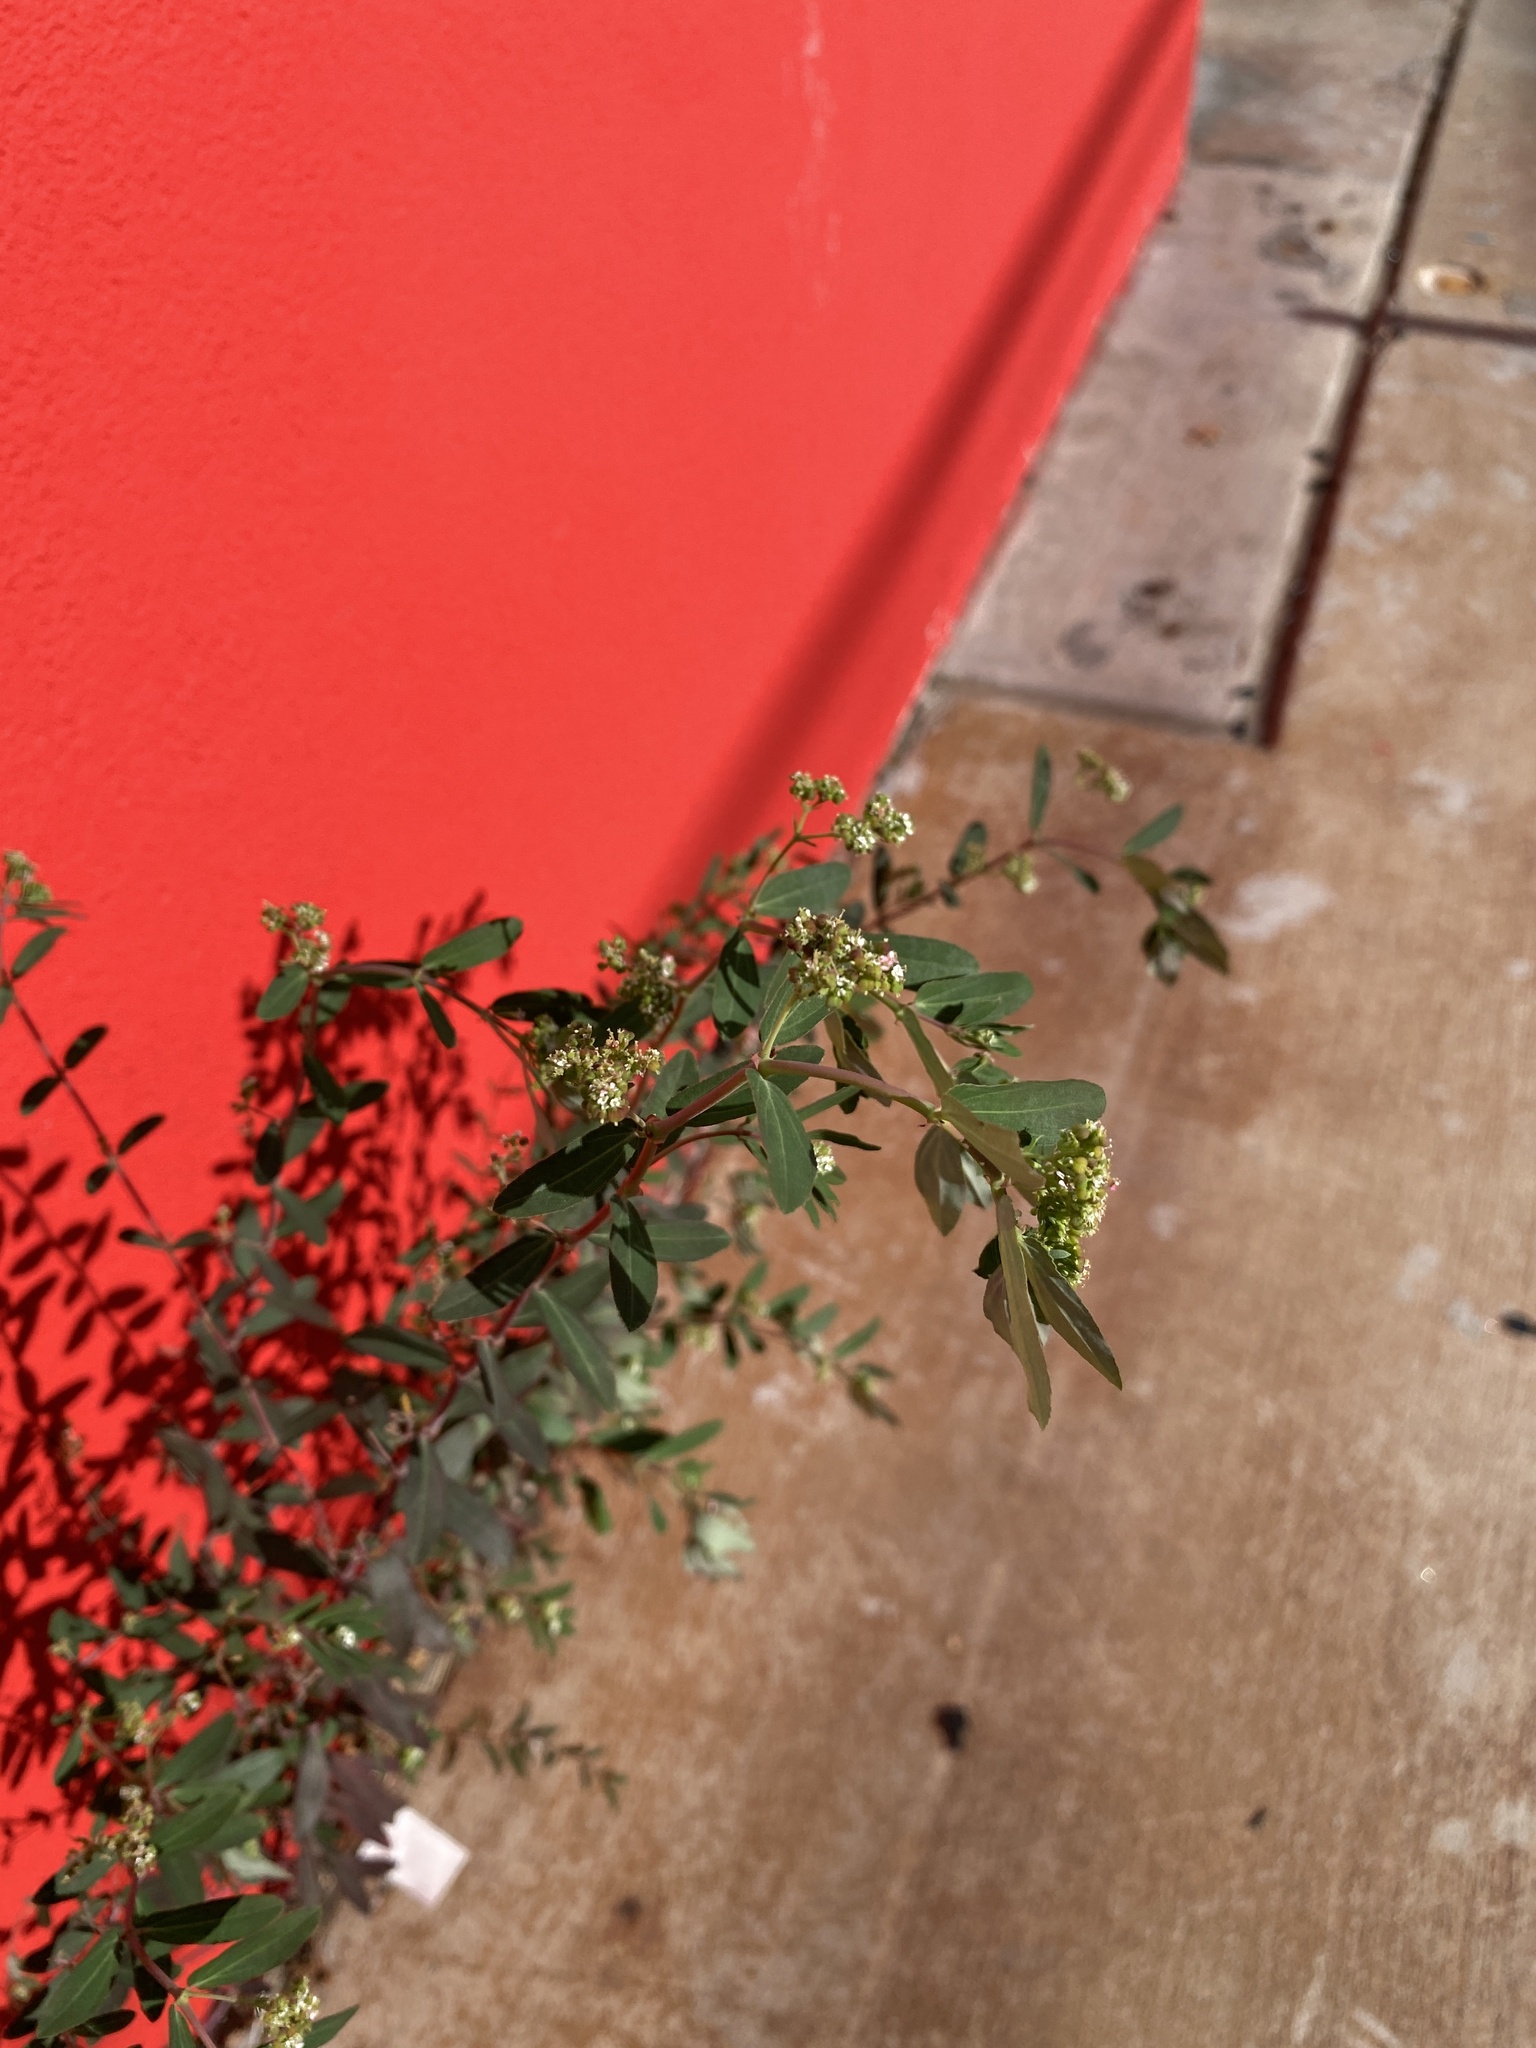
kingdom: Plantae
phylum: Tracheophyta
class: Magnoliopsida
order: Malpighiales
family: Euphorbiaceae
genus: Euphorbia
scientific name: Euphorbia hypericifolia
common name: Graceful sandmat
